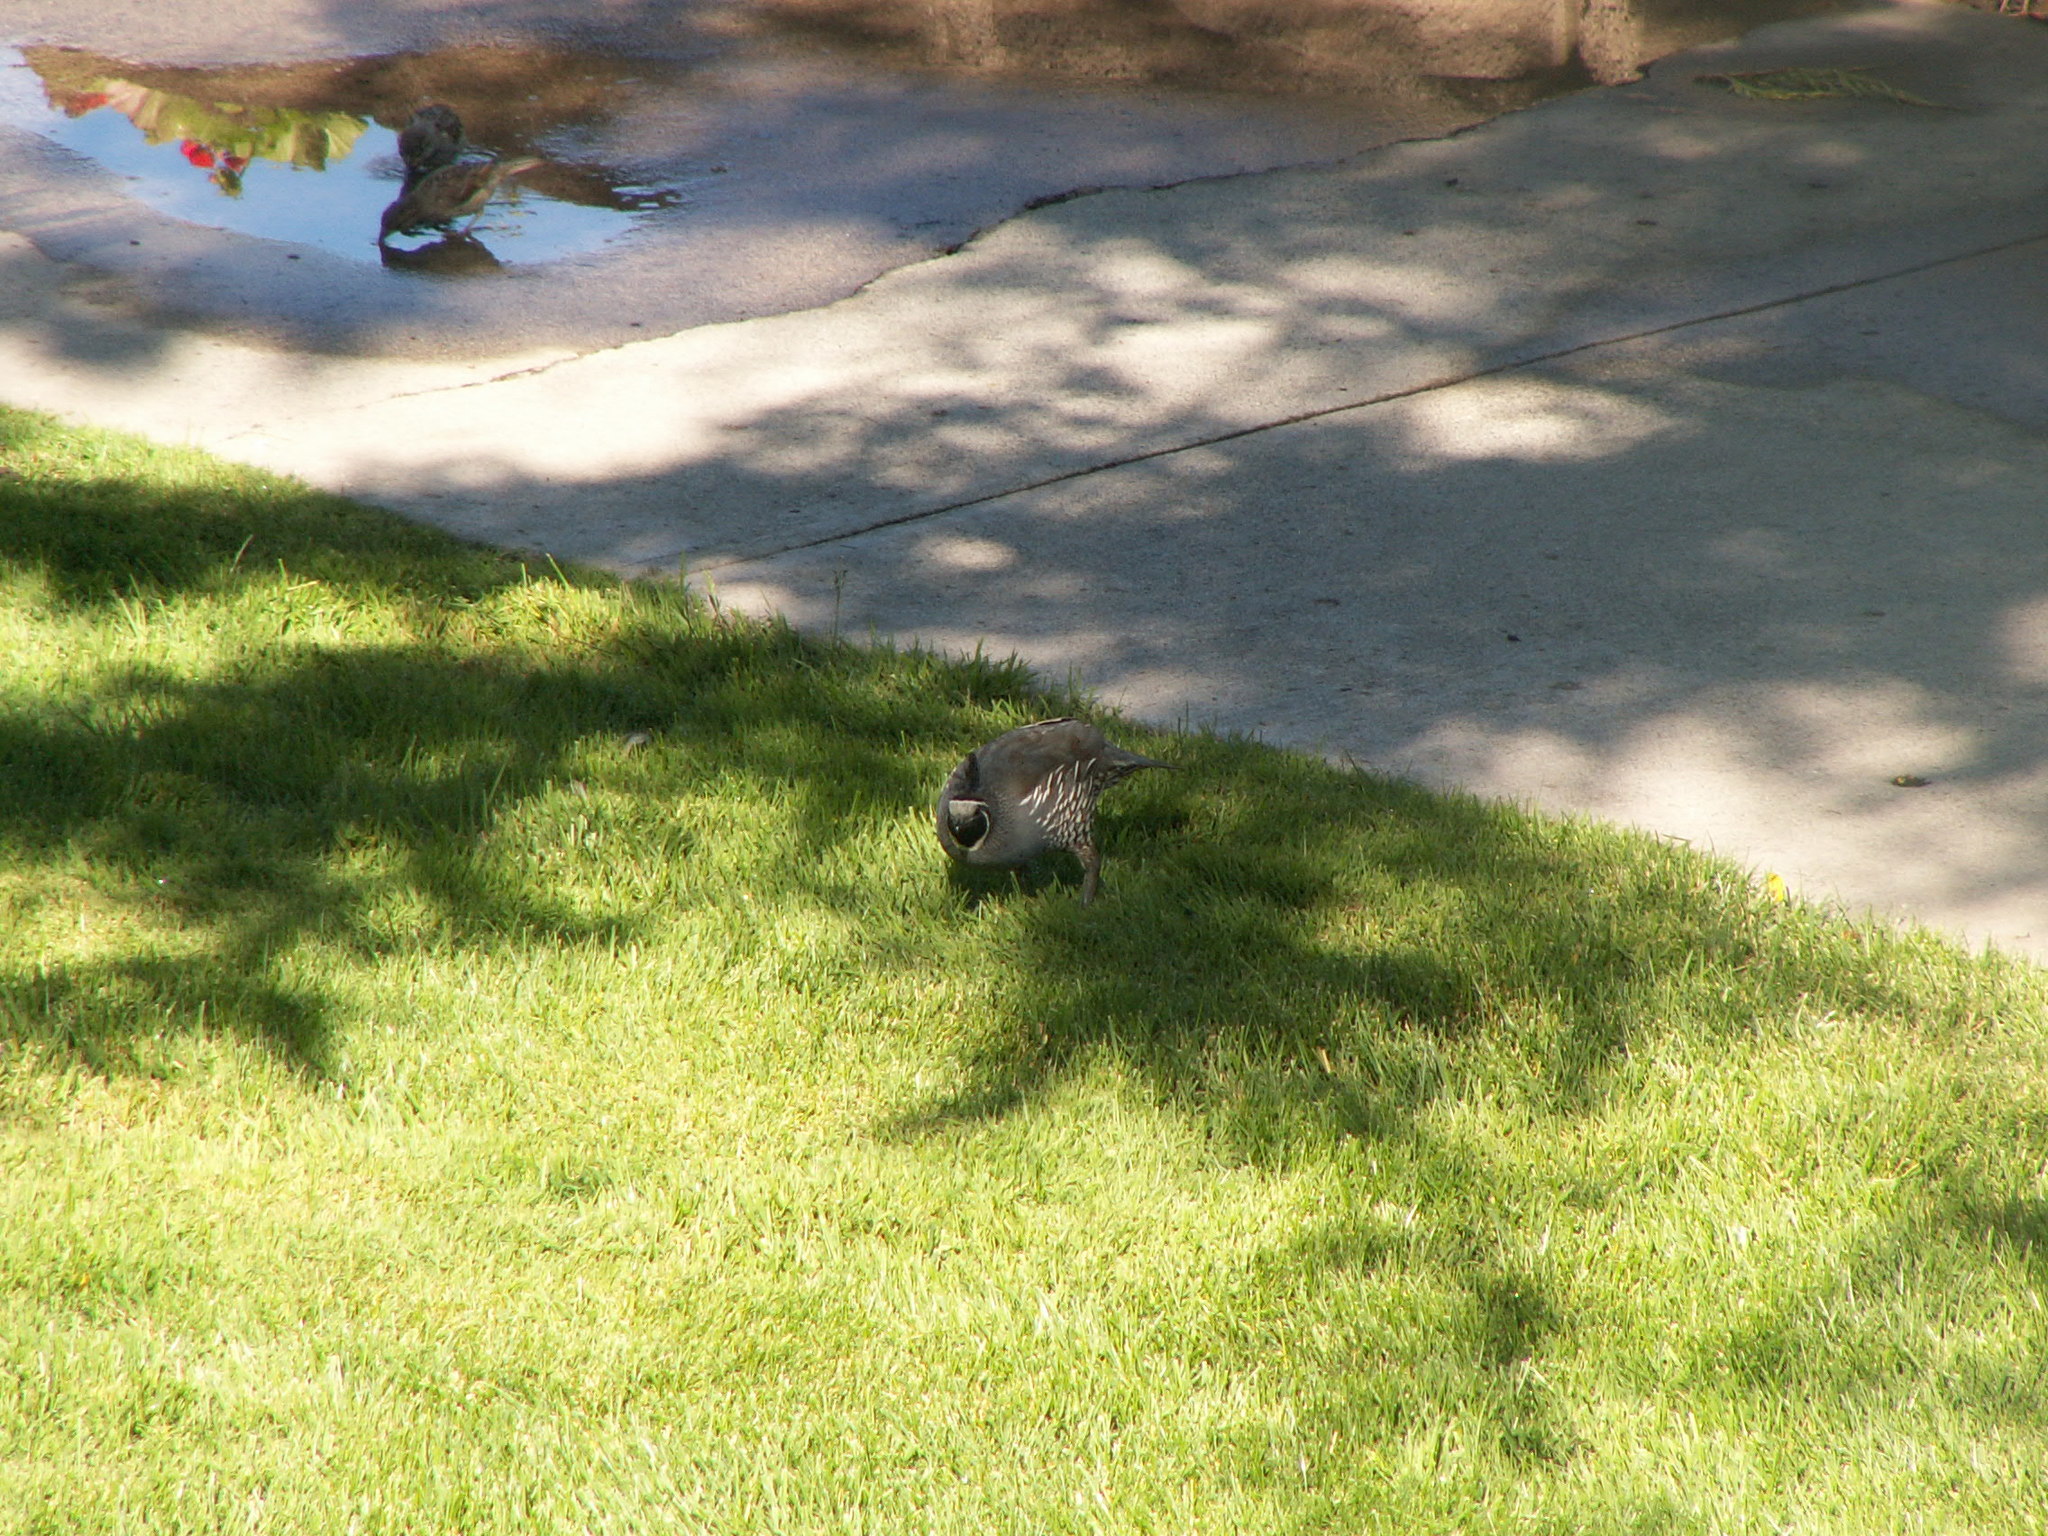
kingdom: Animalia
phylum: Chordata
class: Aves
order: Galliformes
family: Odontophoridae
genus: Callipepla
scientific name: Callipepla californica
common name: California quail
